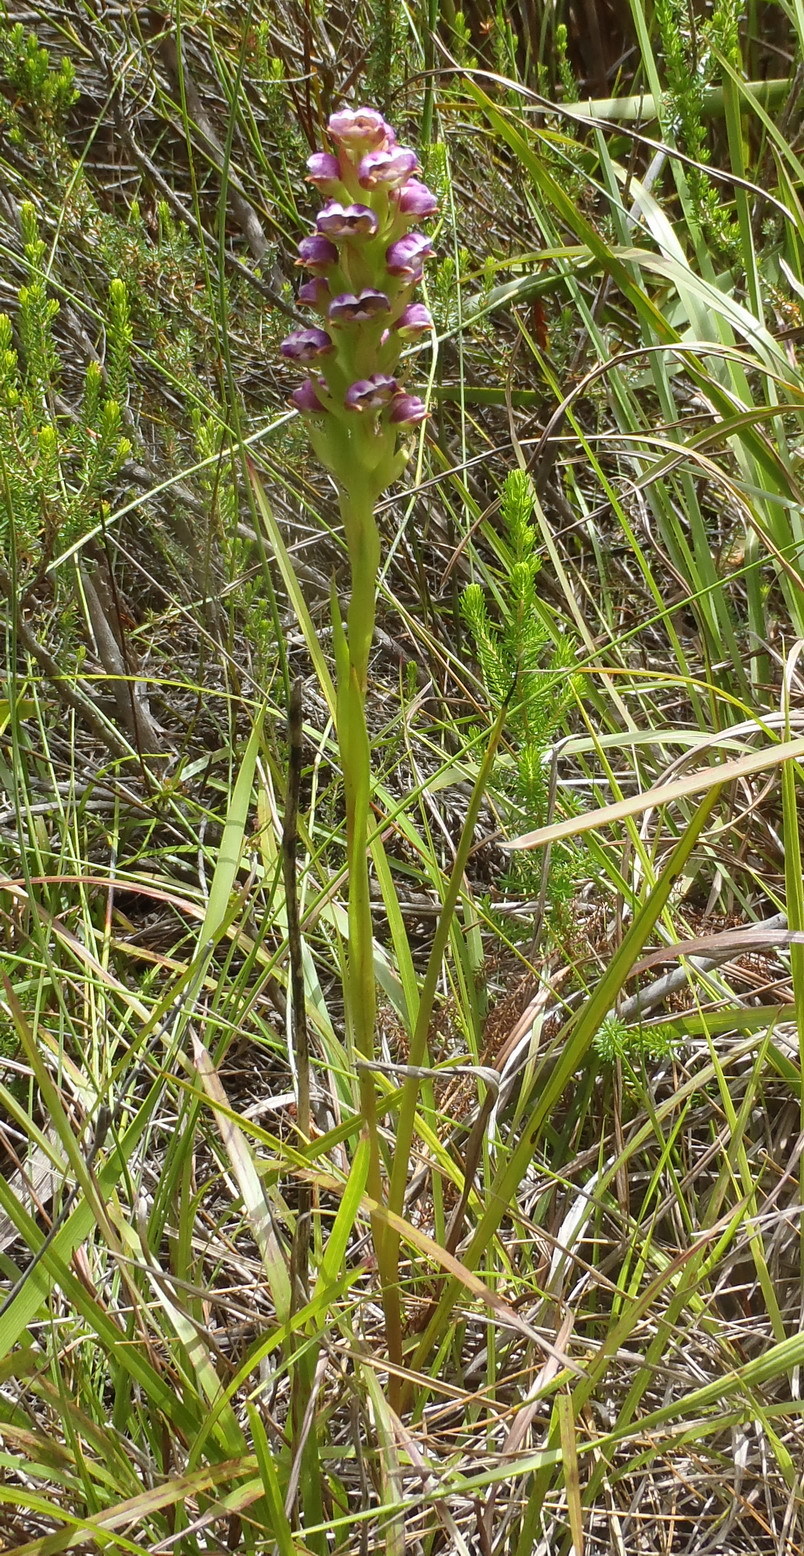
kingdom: Plantae
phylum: Tracheophyta
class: Liliopsida
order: Asparagales
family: Orchidaceae
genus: Evotella
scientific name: Evotella carnosa
